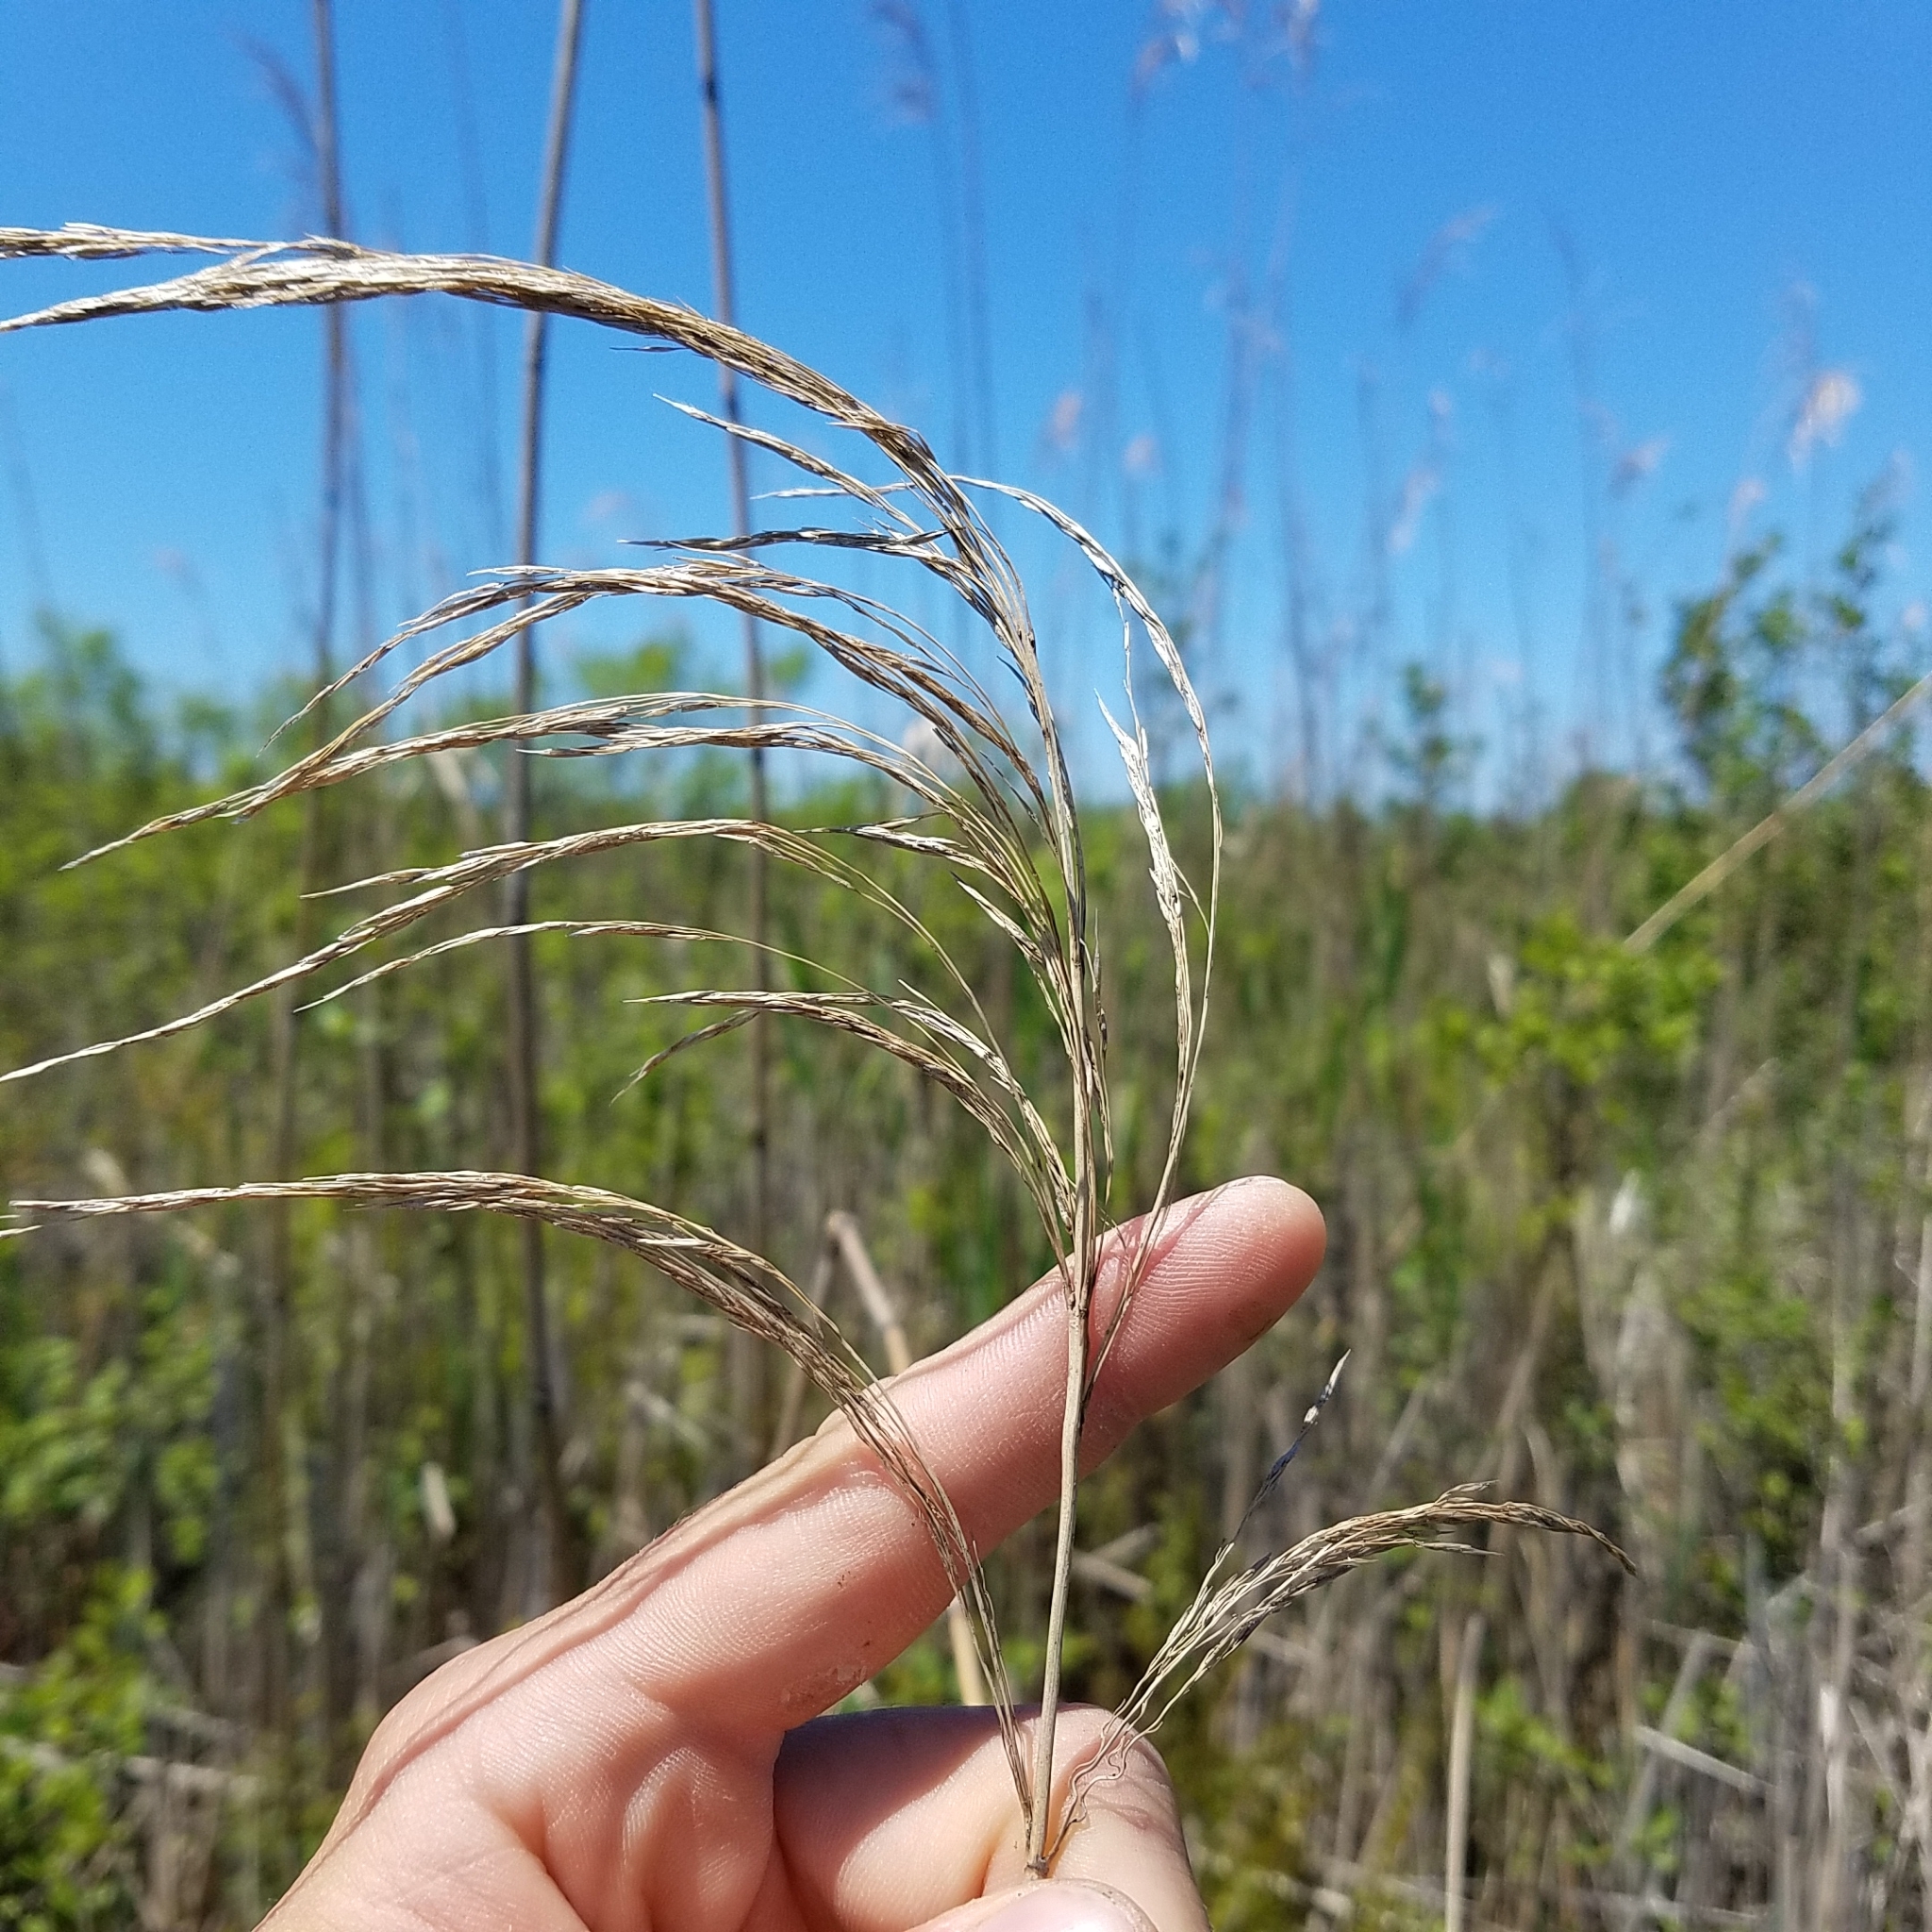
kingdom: Plantae
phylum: Tracheophyta
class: Liliopsida
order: Poales
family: Poaceae
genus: Phragmites
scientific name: Phragmites australis
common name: Common reed
